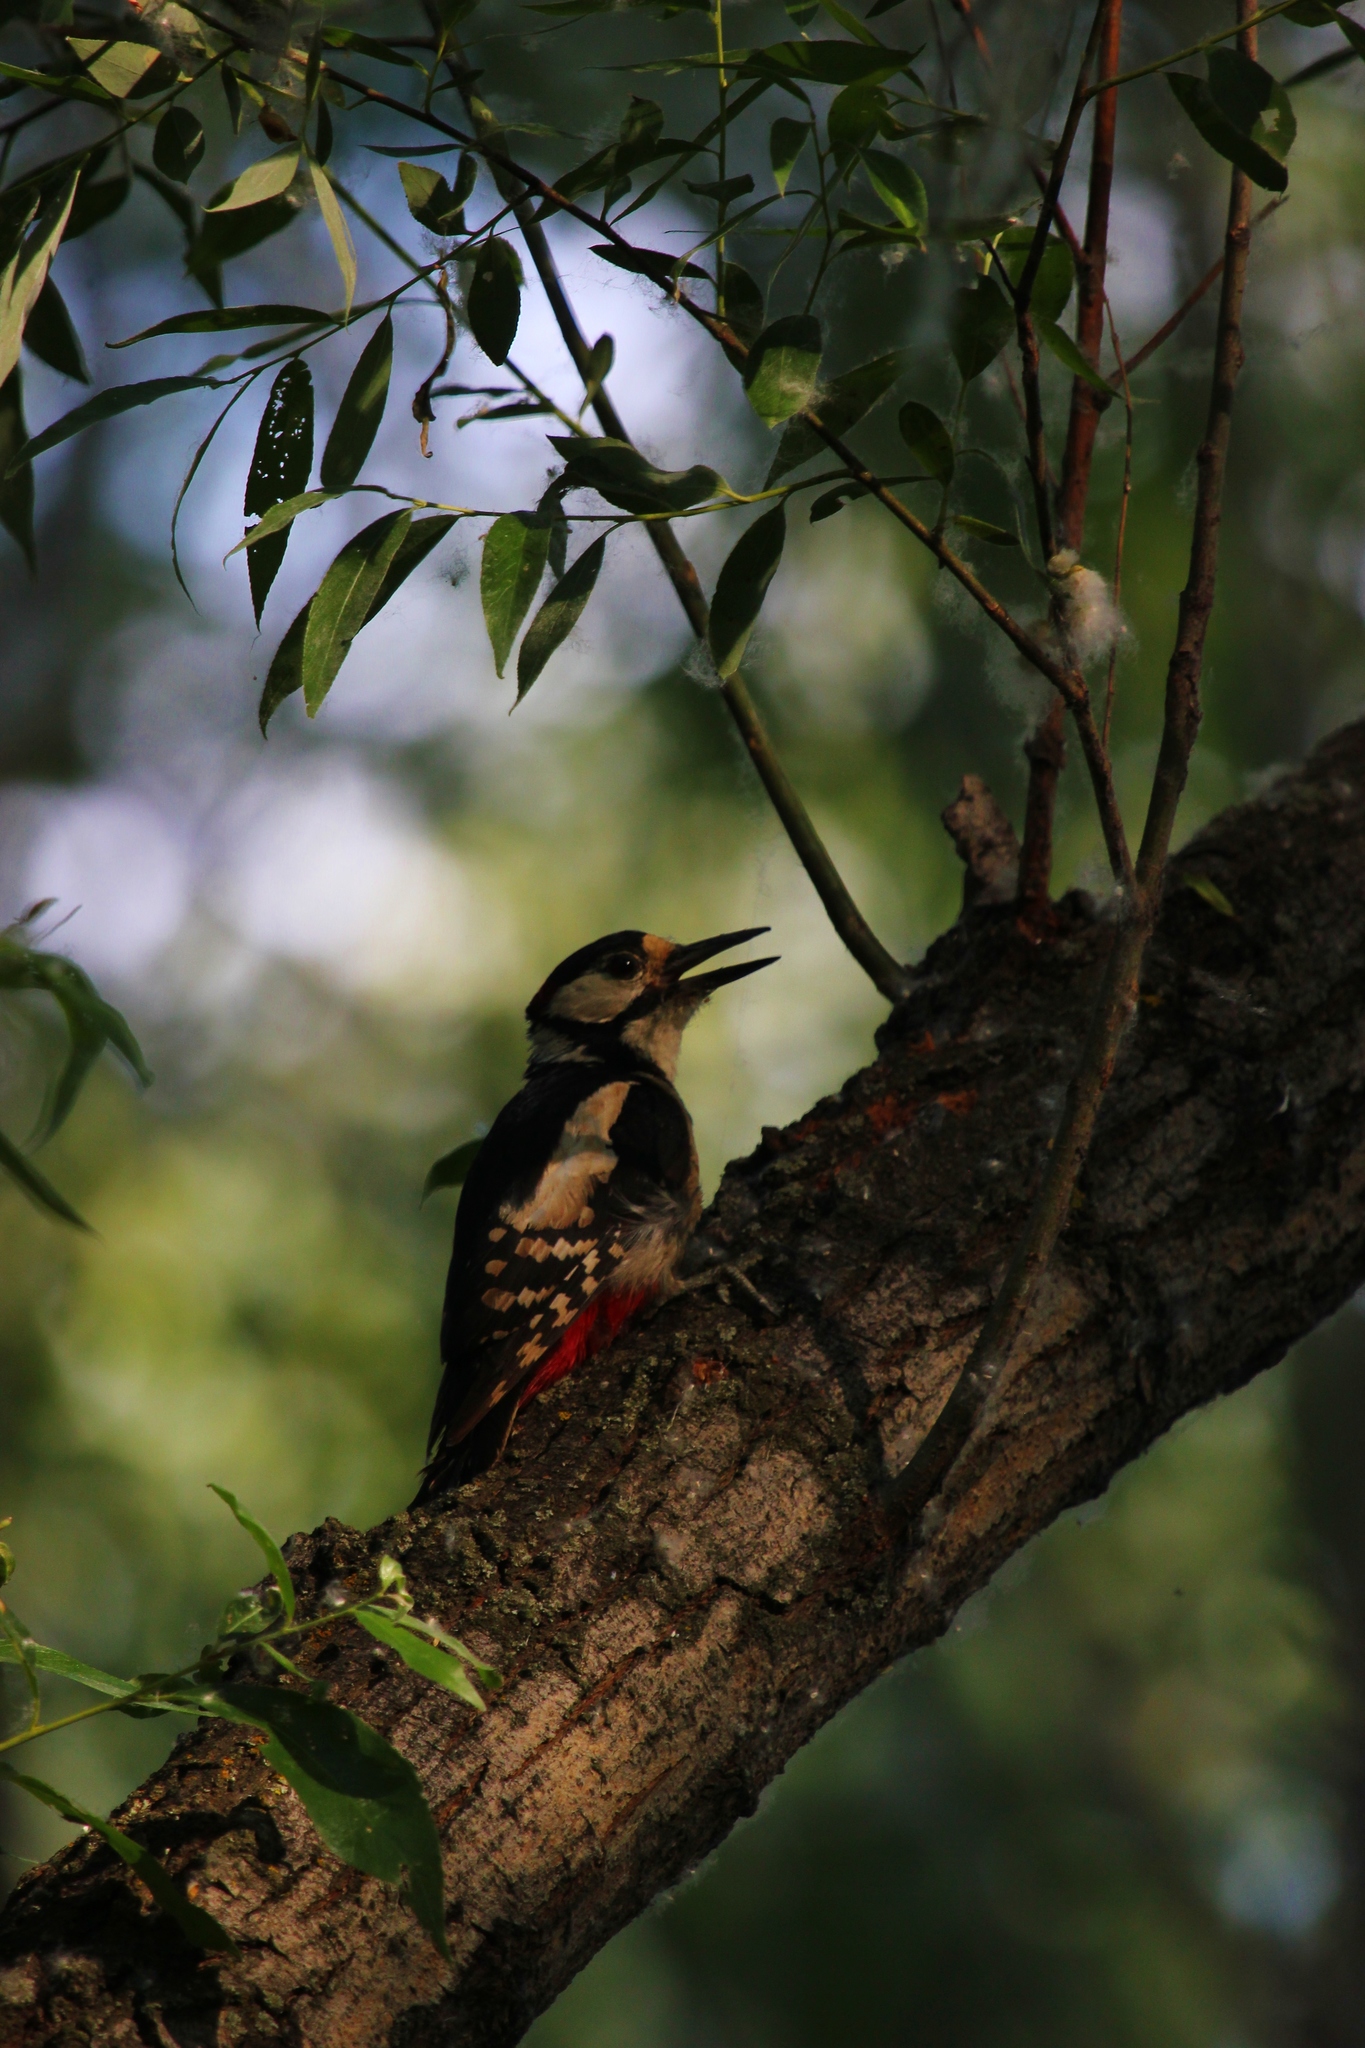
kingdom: Animalia
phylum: Chordata
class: Aves
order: Piciformes
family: Picidae
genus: Dendrocopos
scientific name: Dendrocopos major
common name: Great spotted woodpecker
